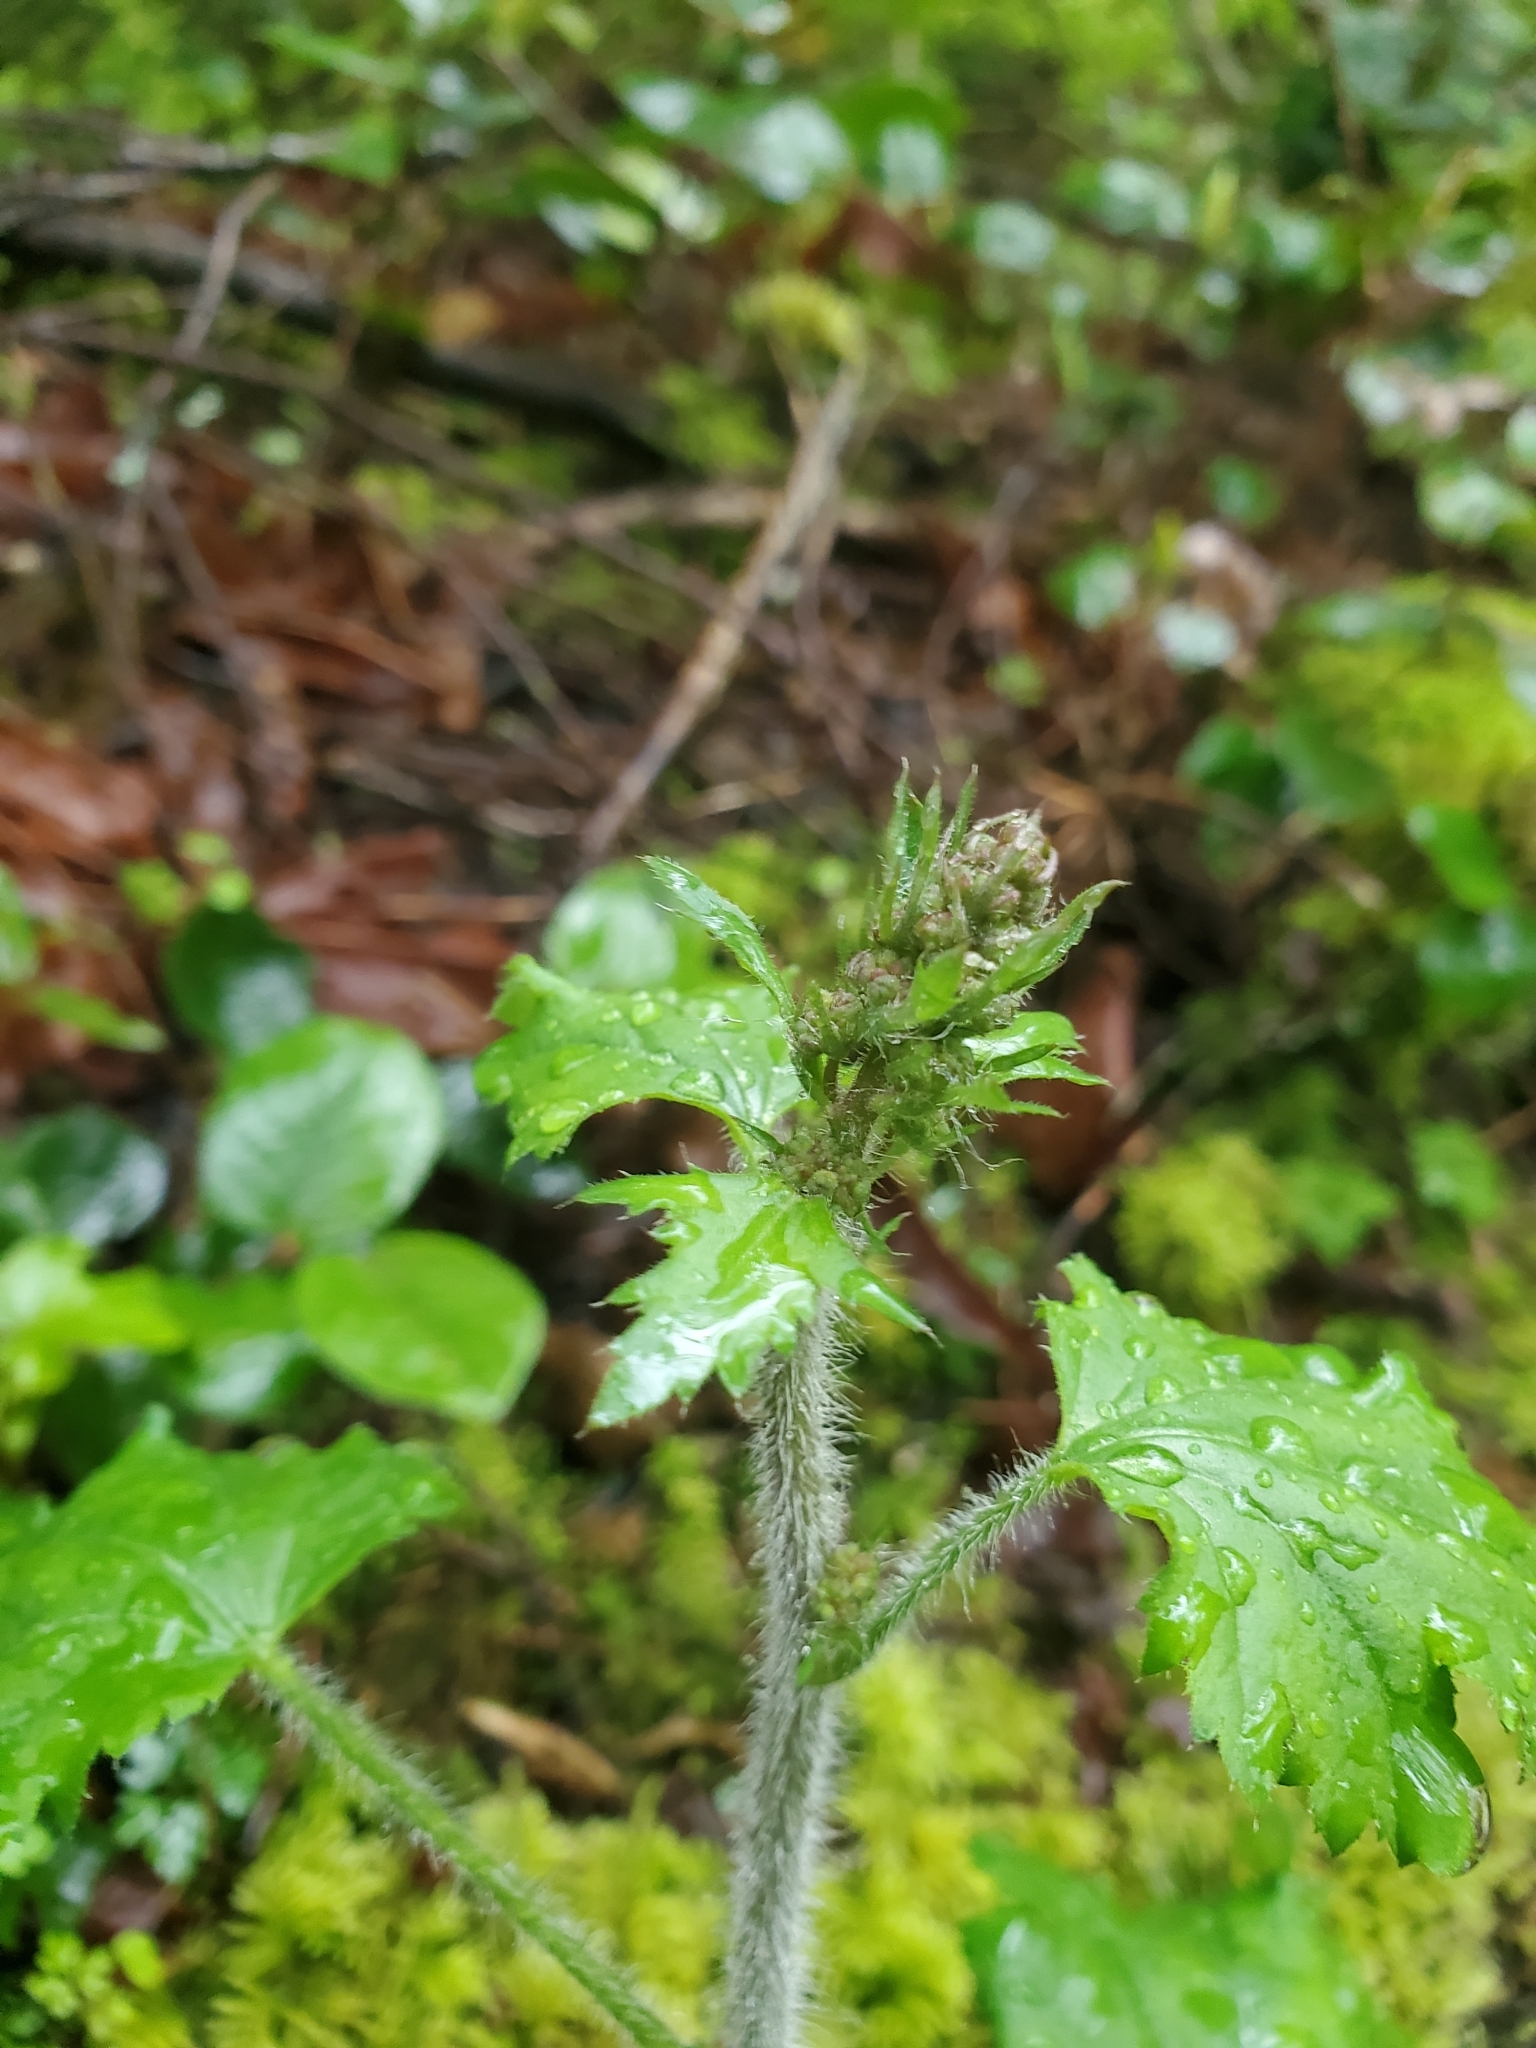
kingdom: Plantae
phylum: Tracheophyta
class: Magnoliopsida
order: Saxifragales
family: Saxifragaceae
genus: Heuchera
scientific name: Heuchera micrantha
